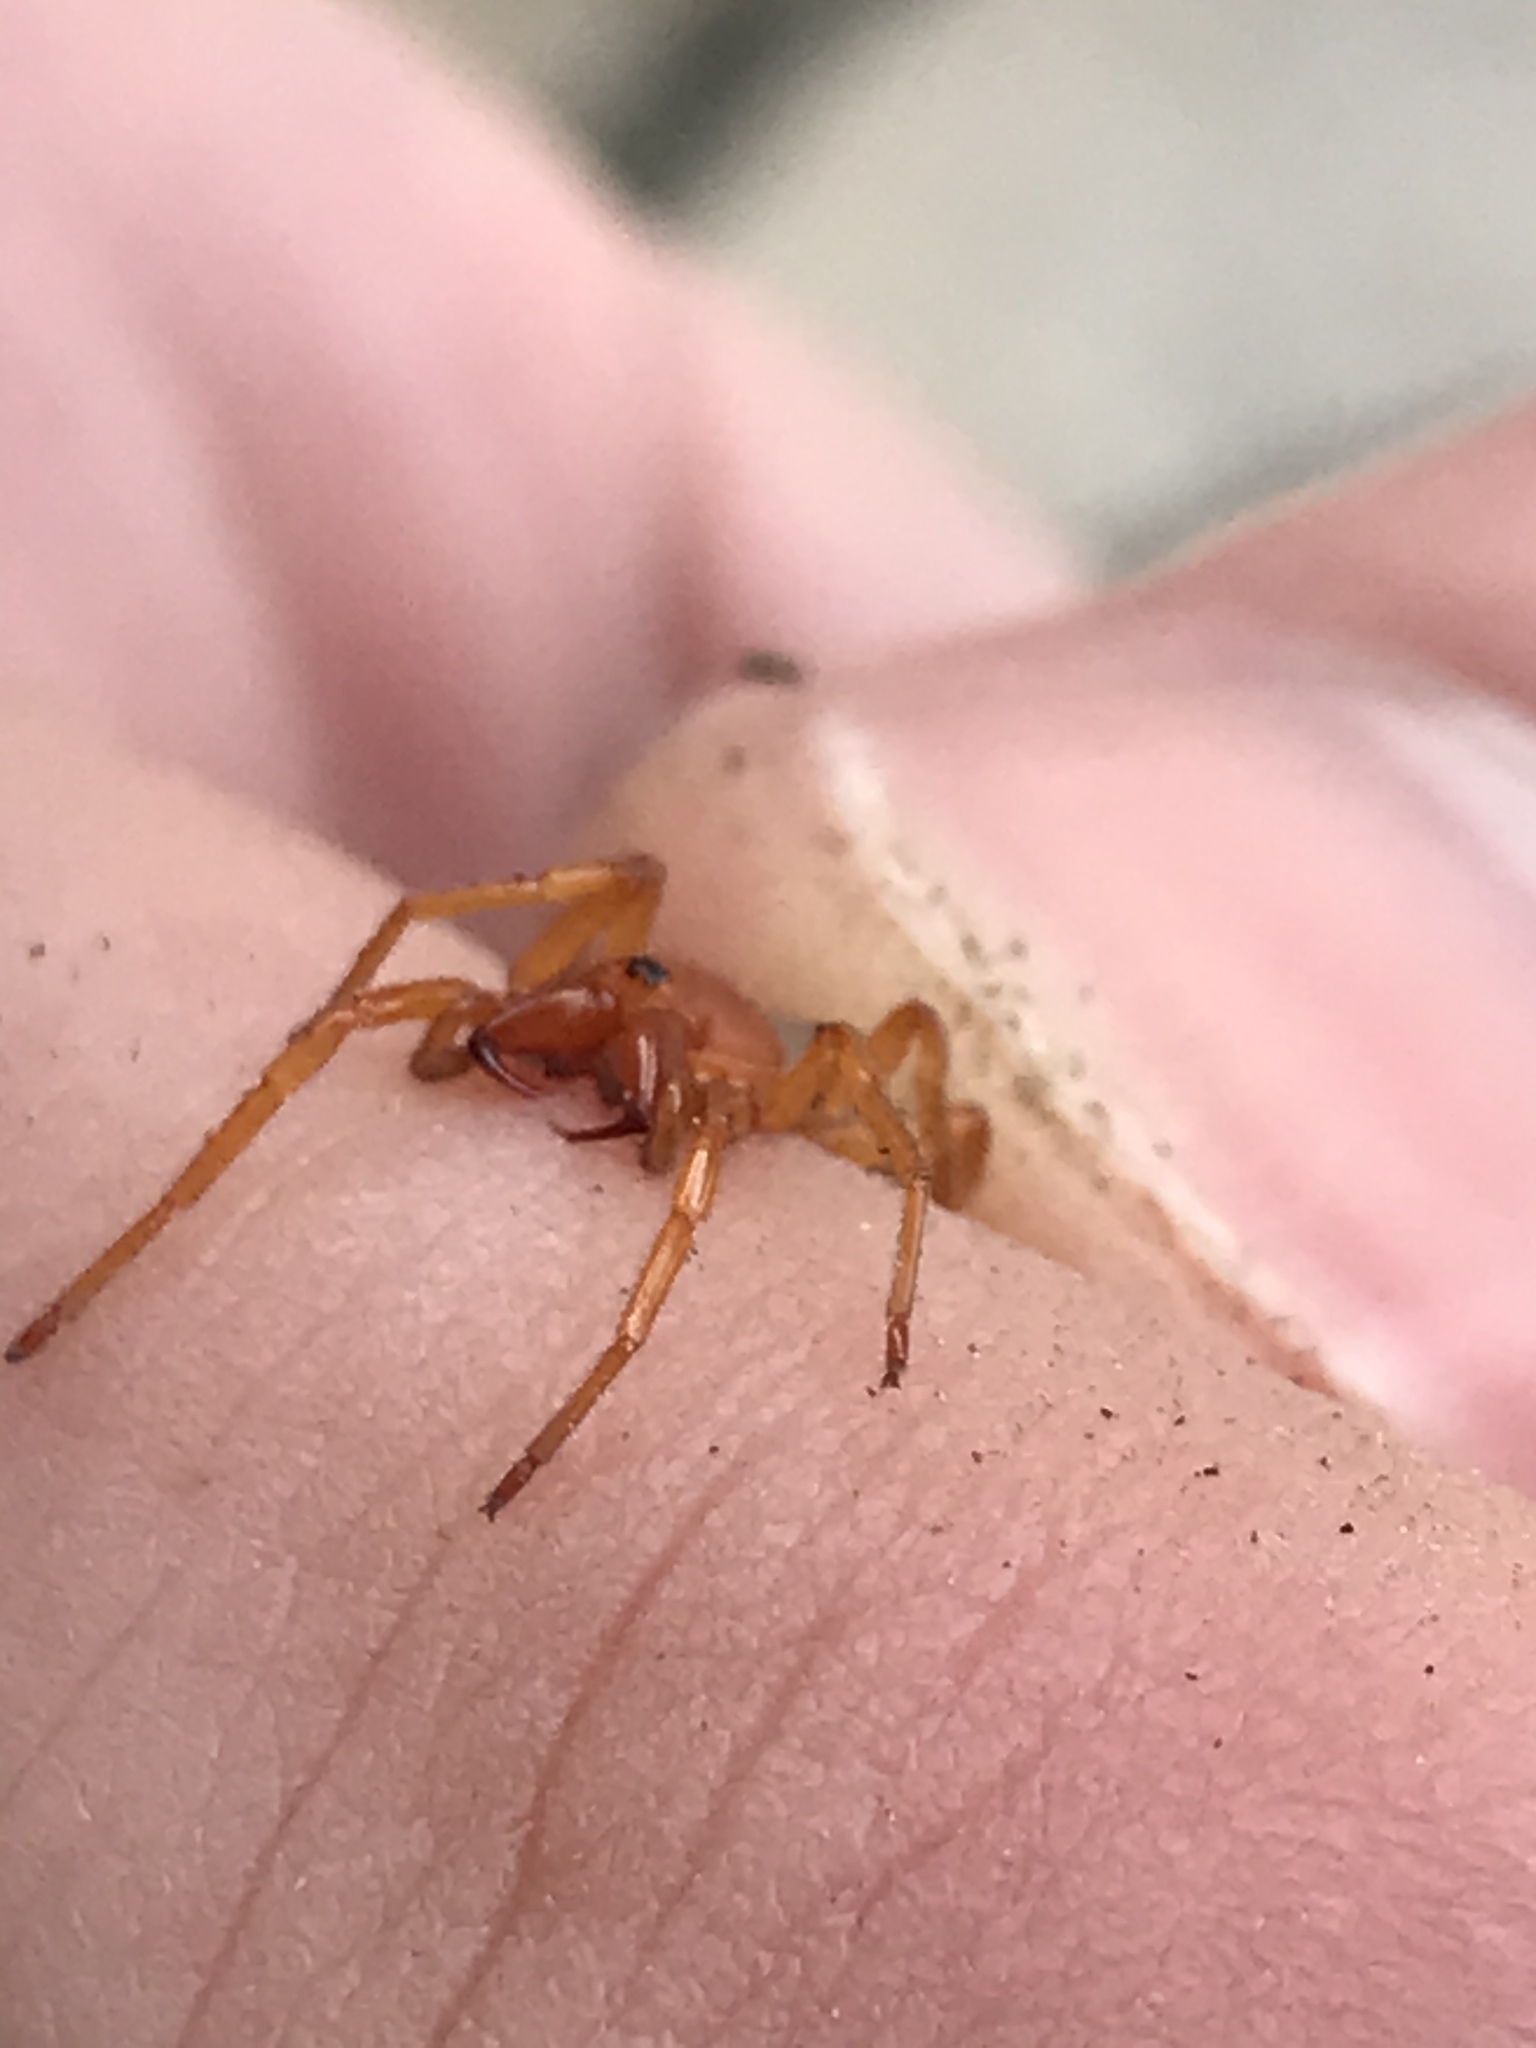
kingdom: Animalia
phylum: Arthropoda
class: Arachnida
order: Araneae
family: Dysderidae
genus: Dysdera
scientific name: Dysdera crocata
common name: Woodlouse spider
